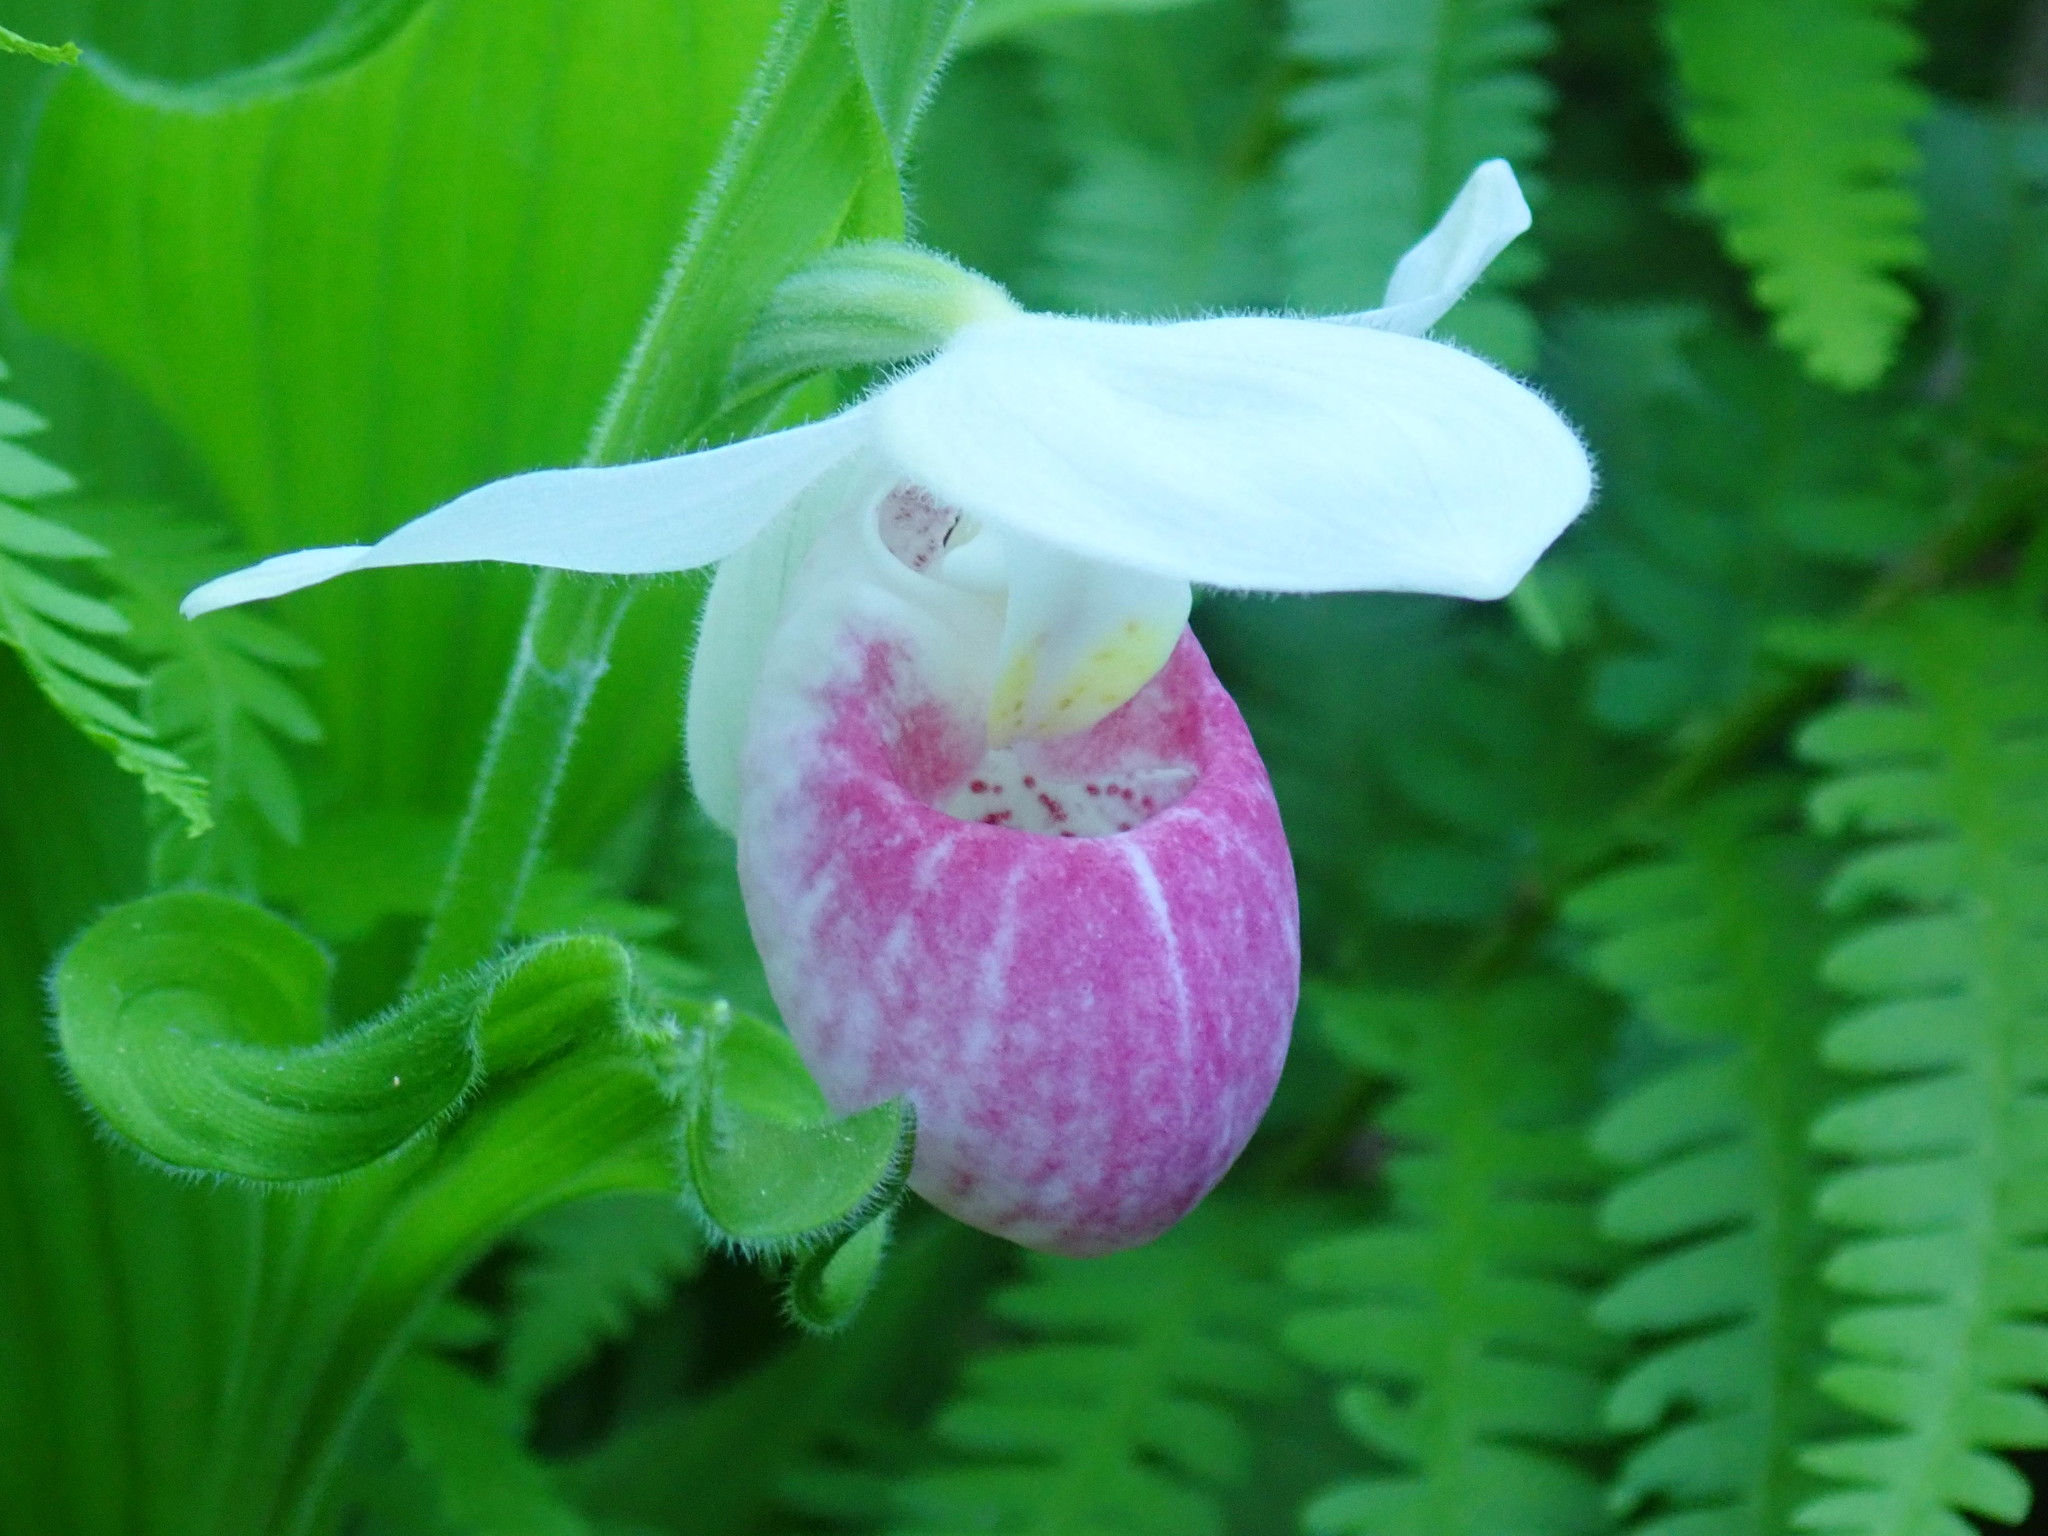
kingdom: Plantae
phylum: Tracheophyta
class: Liliopsida
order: Asparagales
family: Orchidaceae
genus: Cypripedium
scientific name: Cypripedium reginae
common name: Queen lady's-slipper
